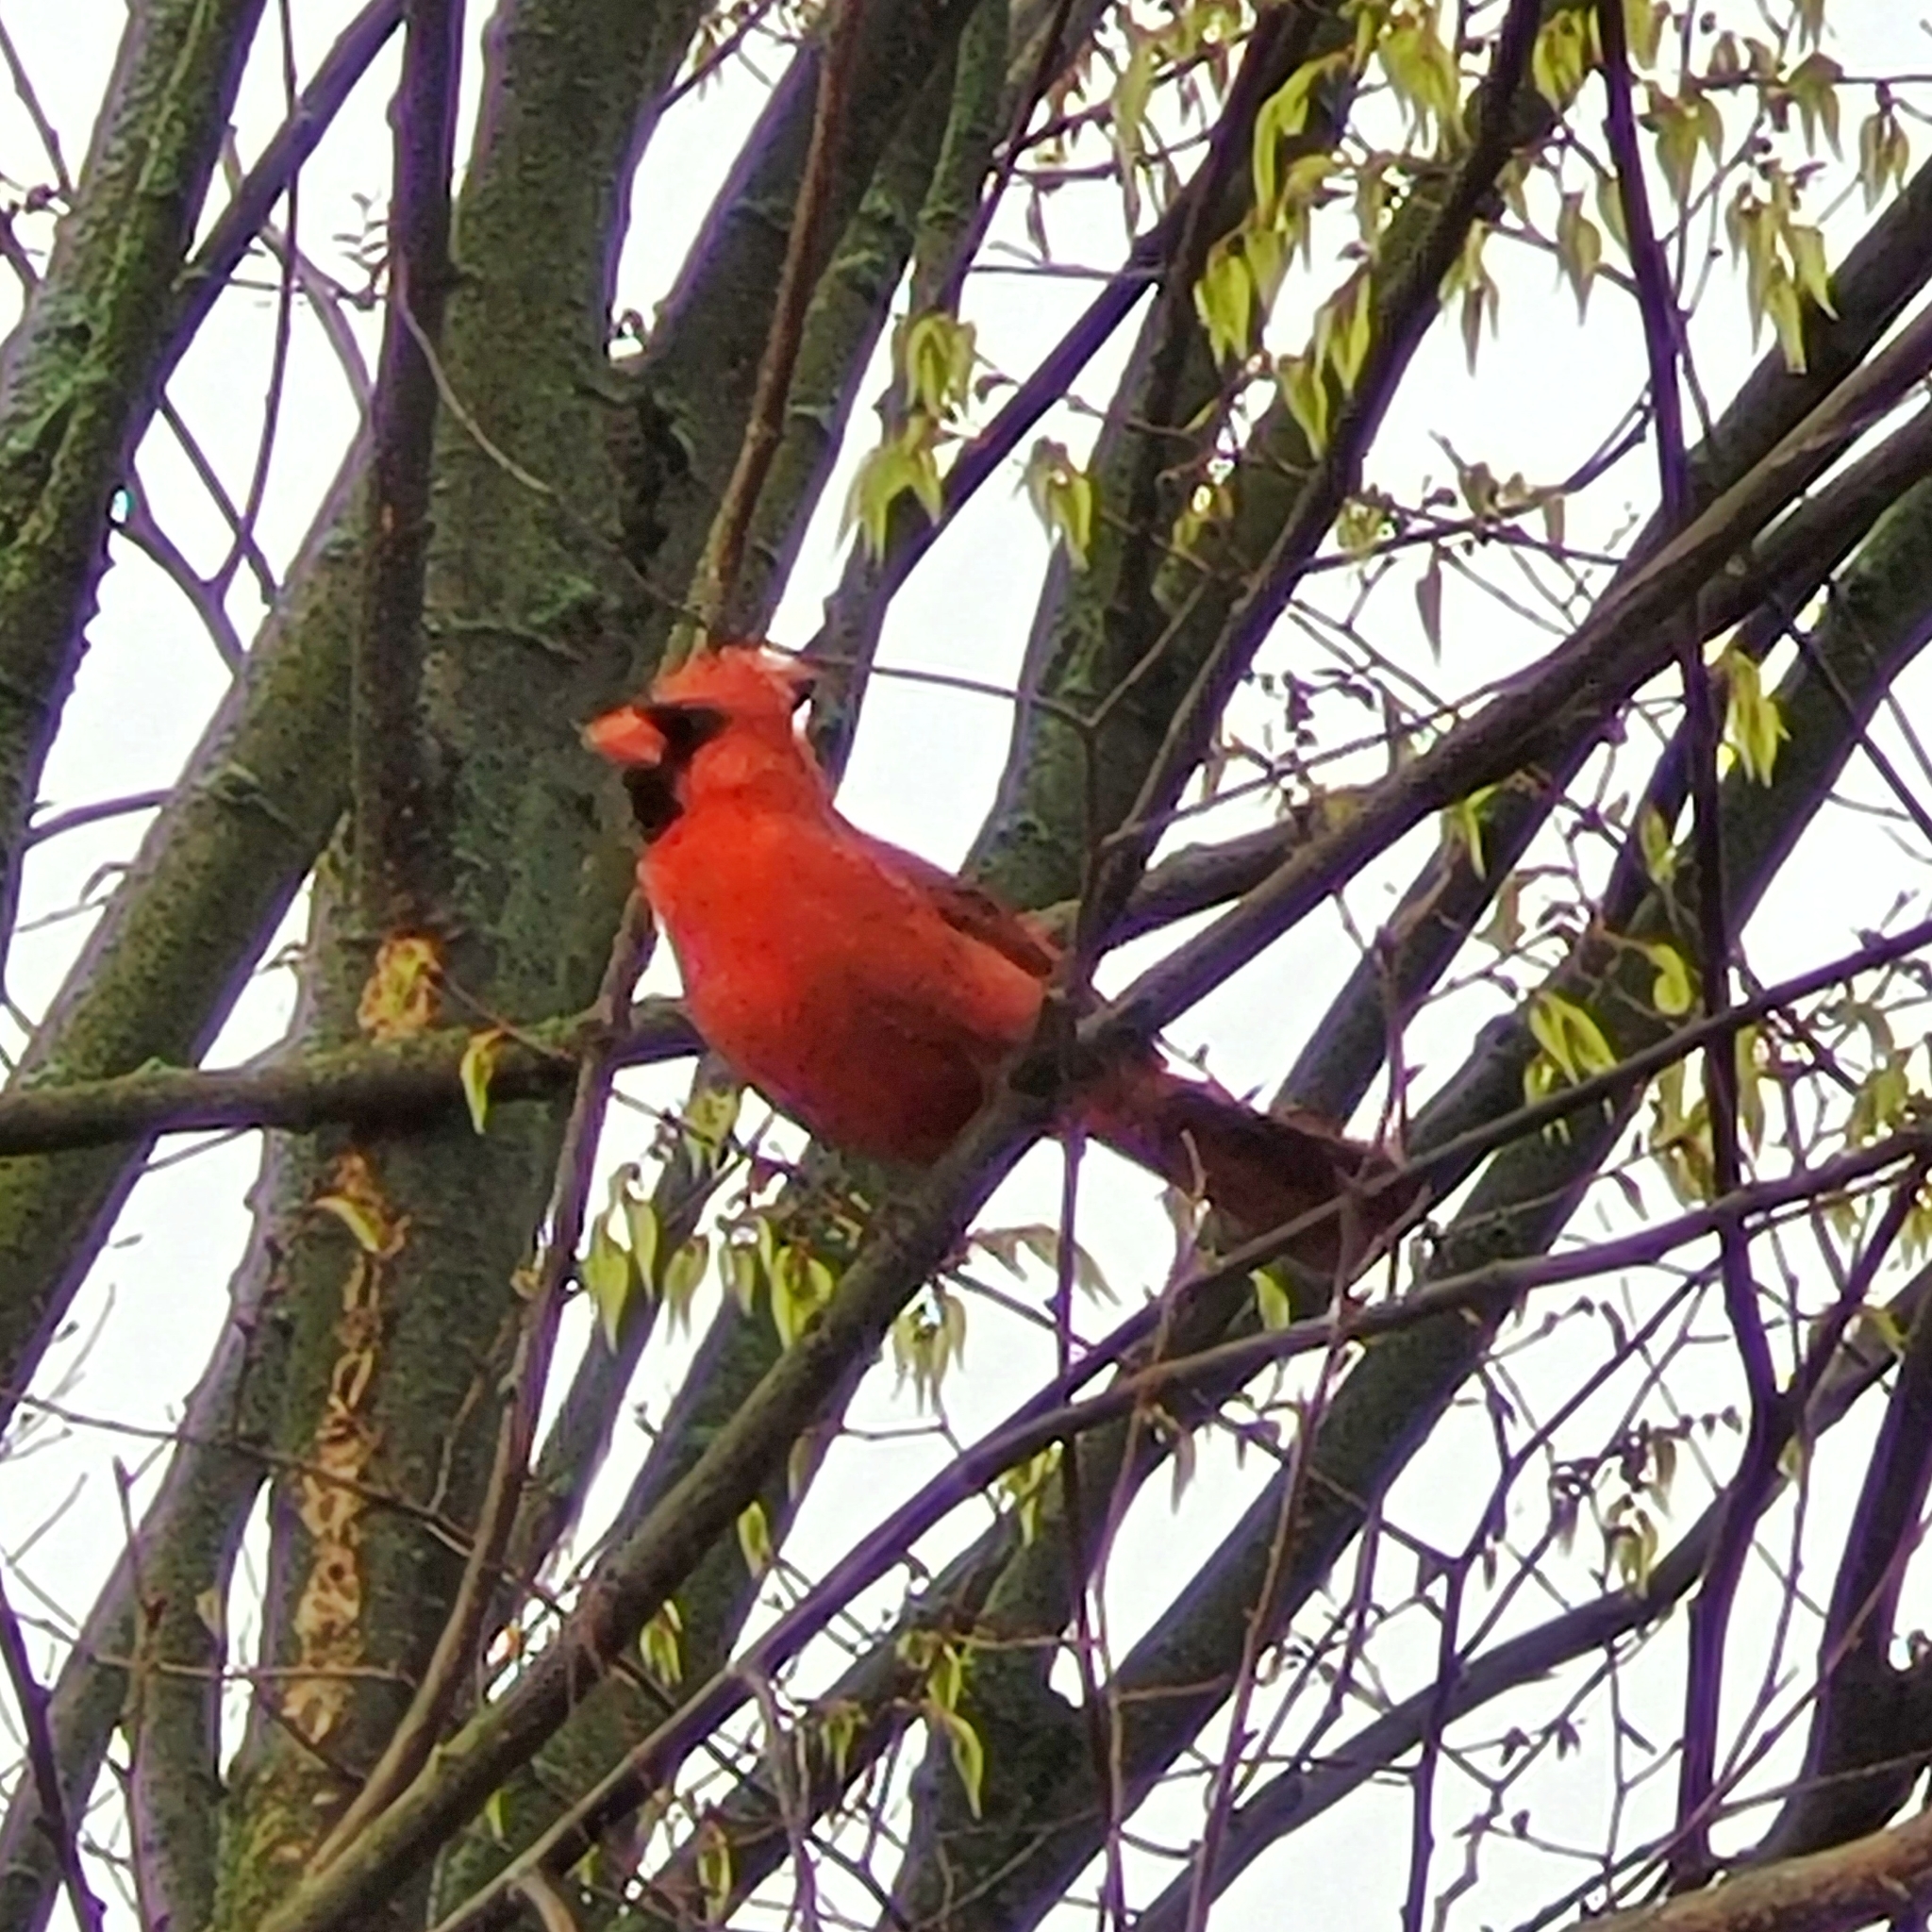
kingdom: Animalia
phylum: Chordata
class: Aves
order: Passeriformes
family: Cardinalidae
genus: Cardinalis
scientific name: Cardinalis cardinalis
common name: Northern cardinal
